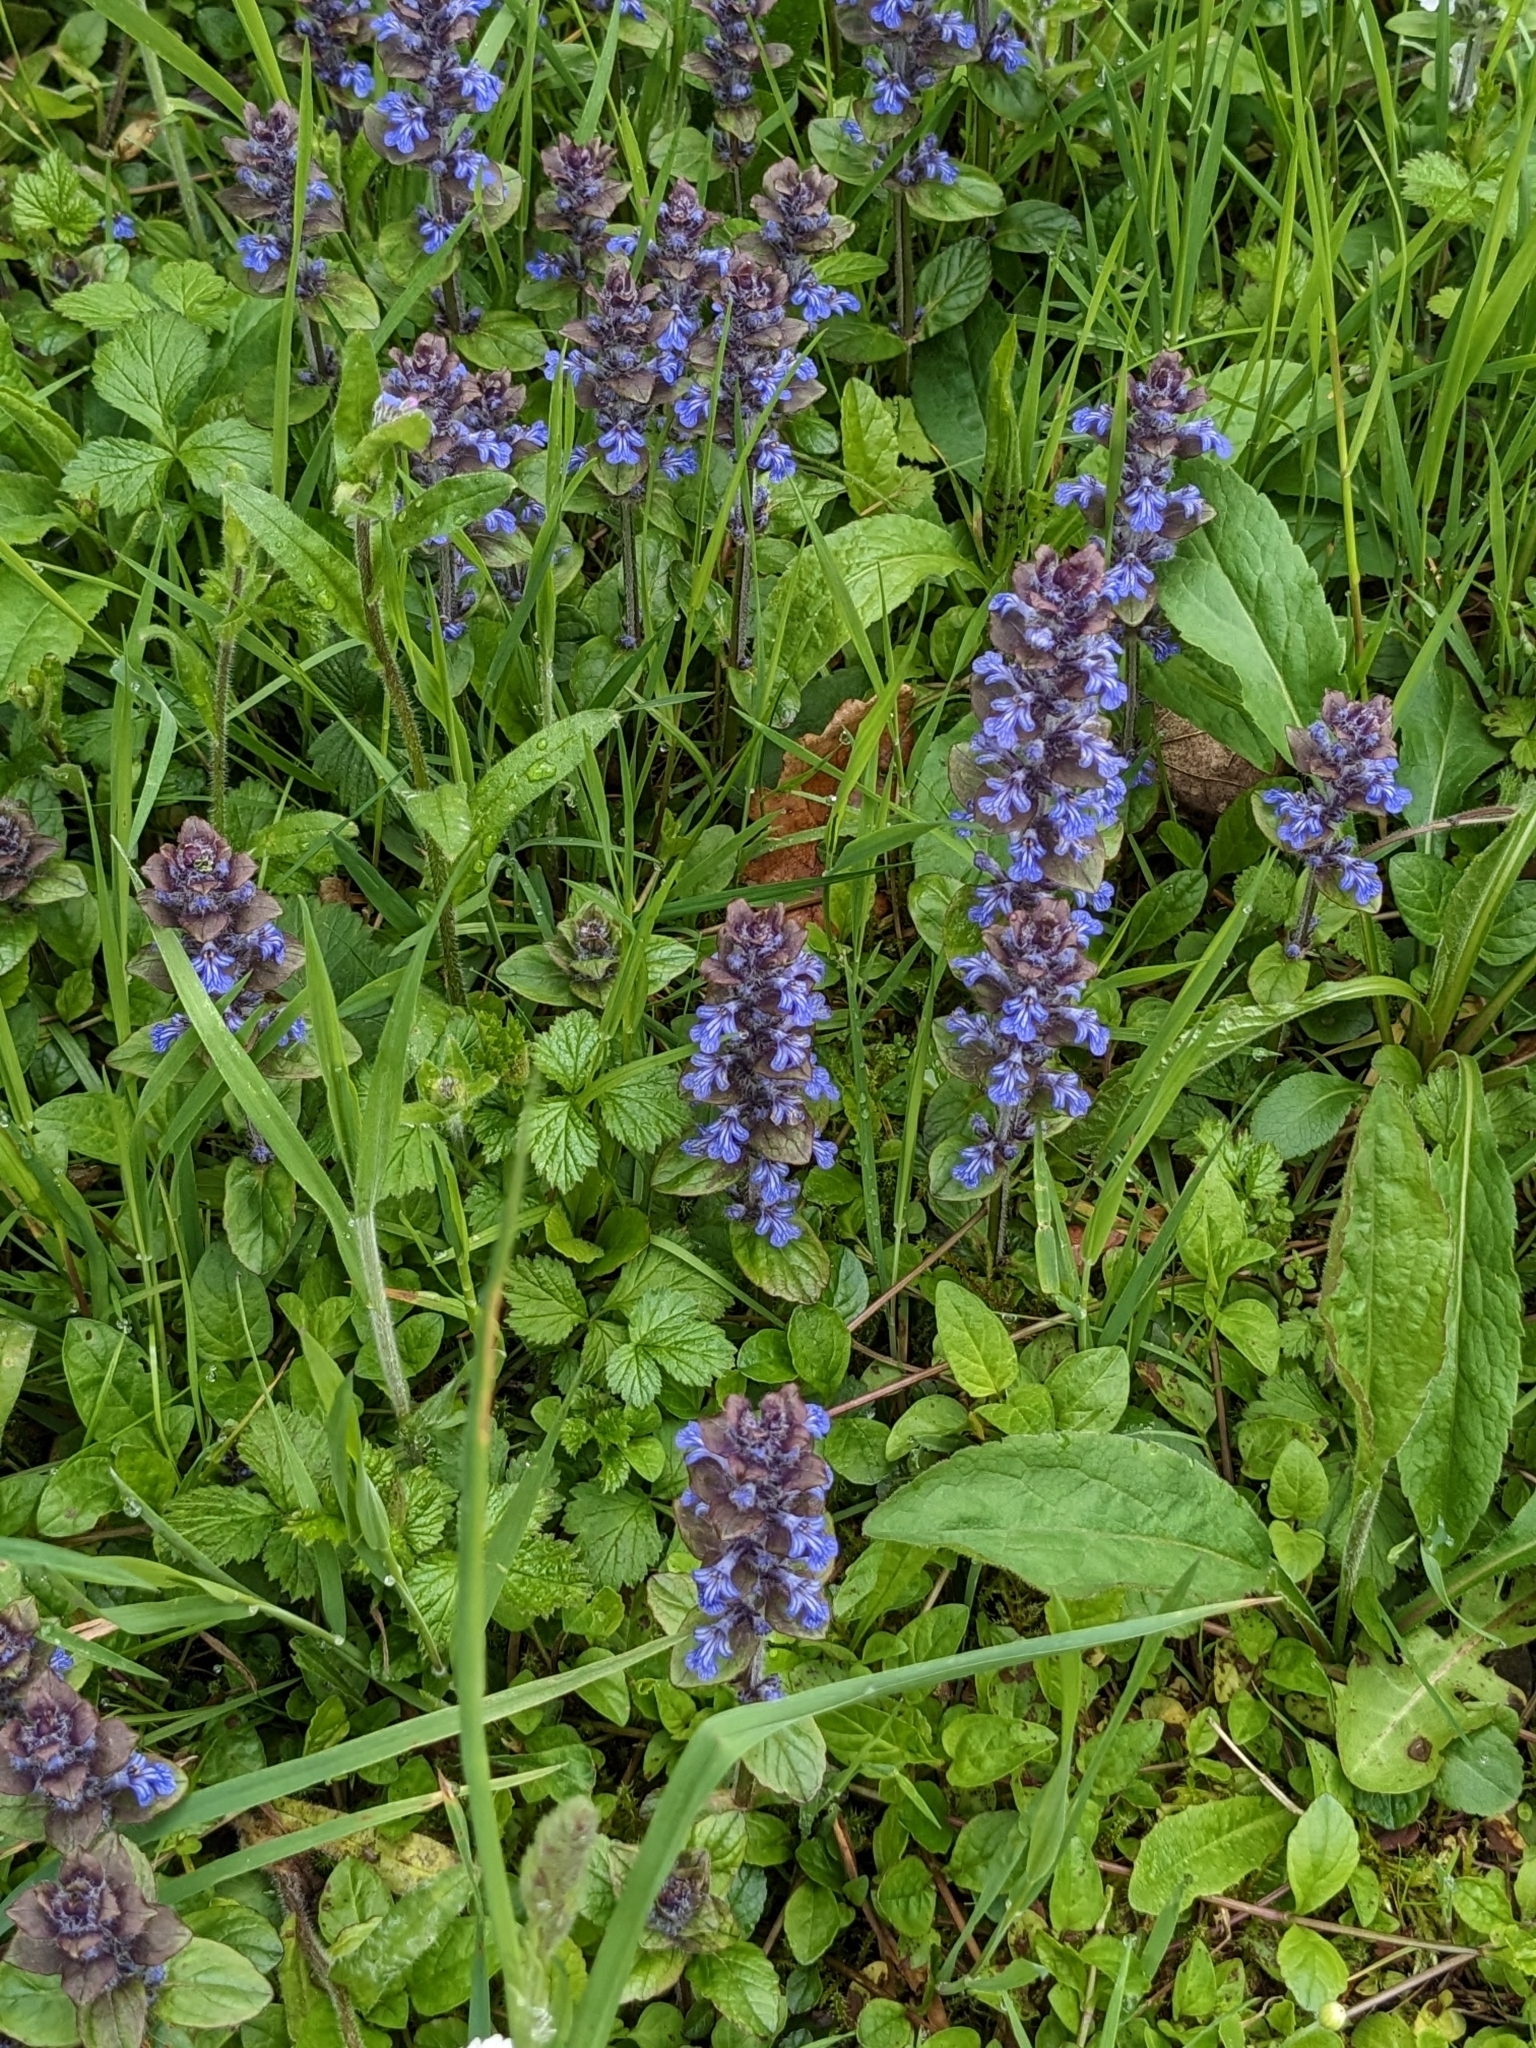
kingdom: Plantae
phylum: Tracheophyta
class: Magnoliopsida
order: Lamiales
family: Lamiaceae
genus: Ajuga
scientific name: Ajuga reptans
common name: Bugle
